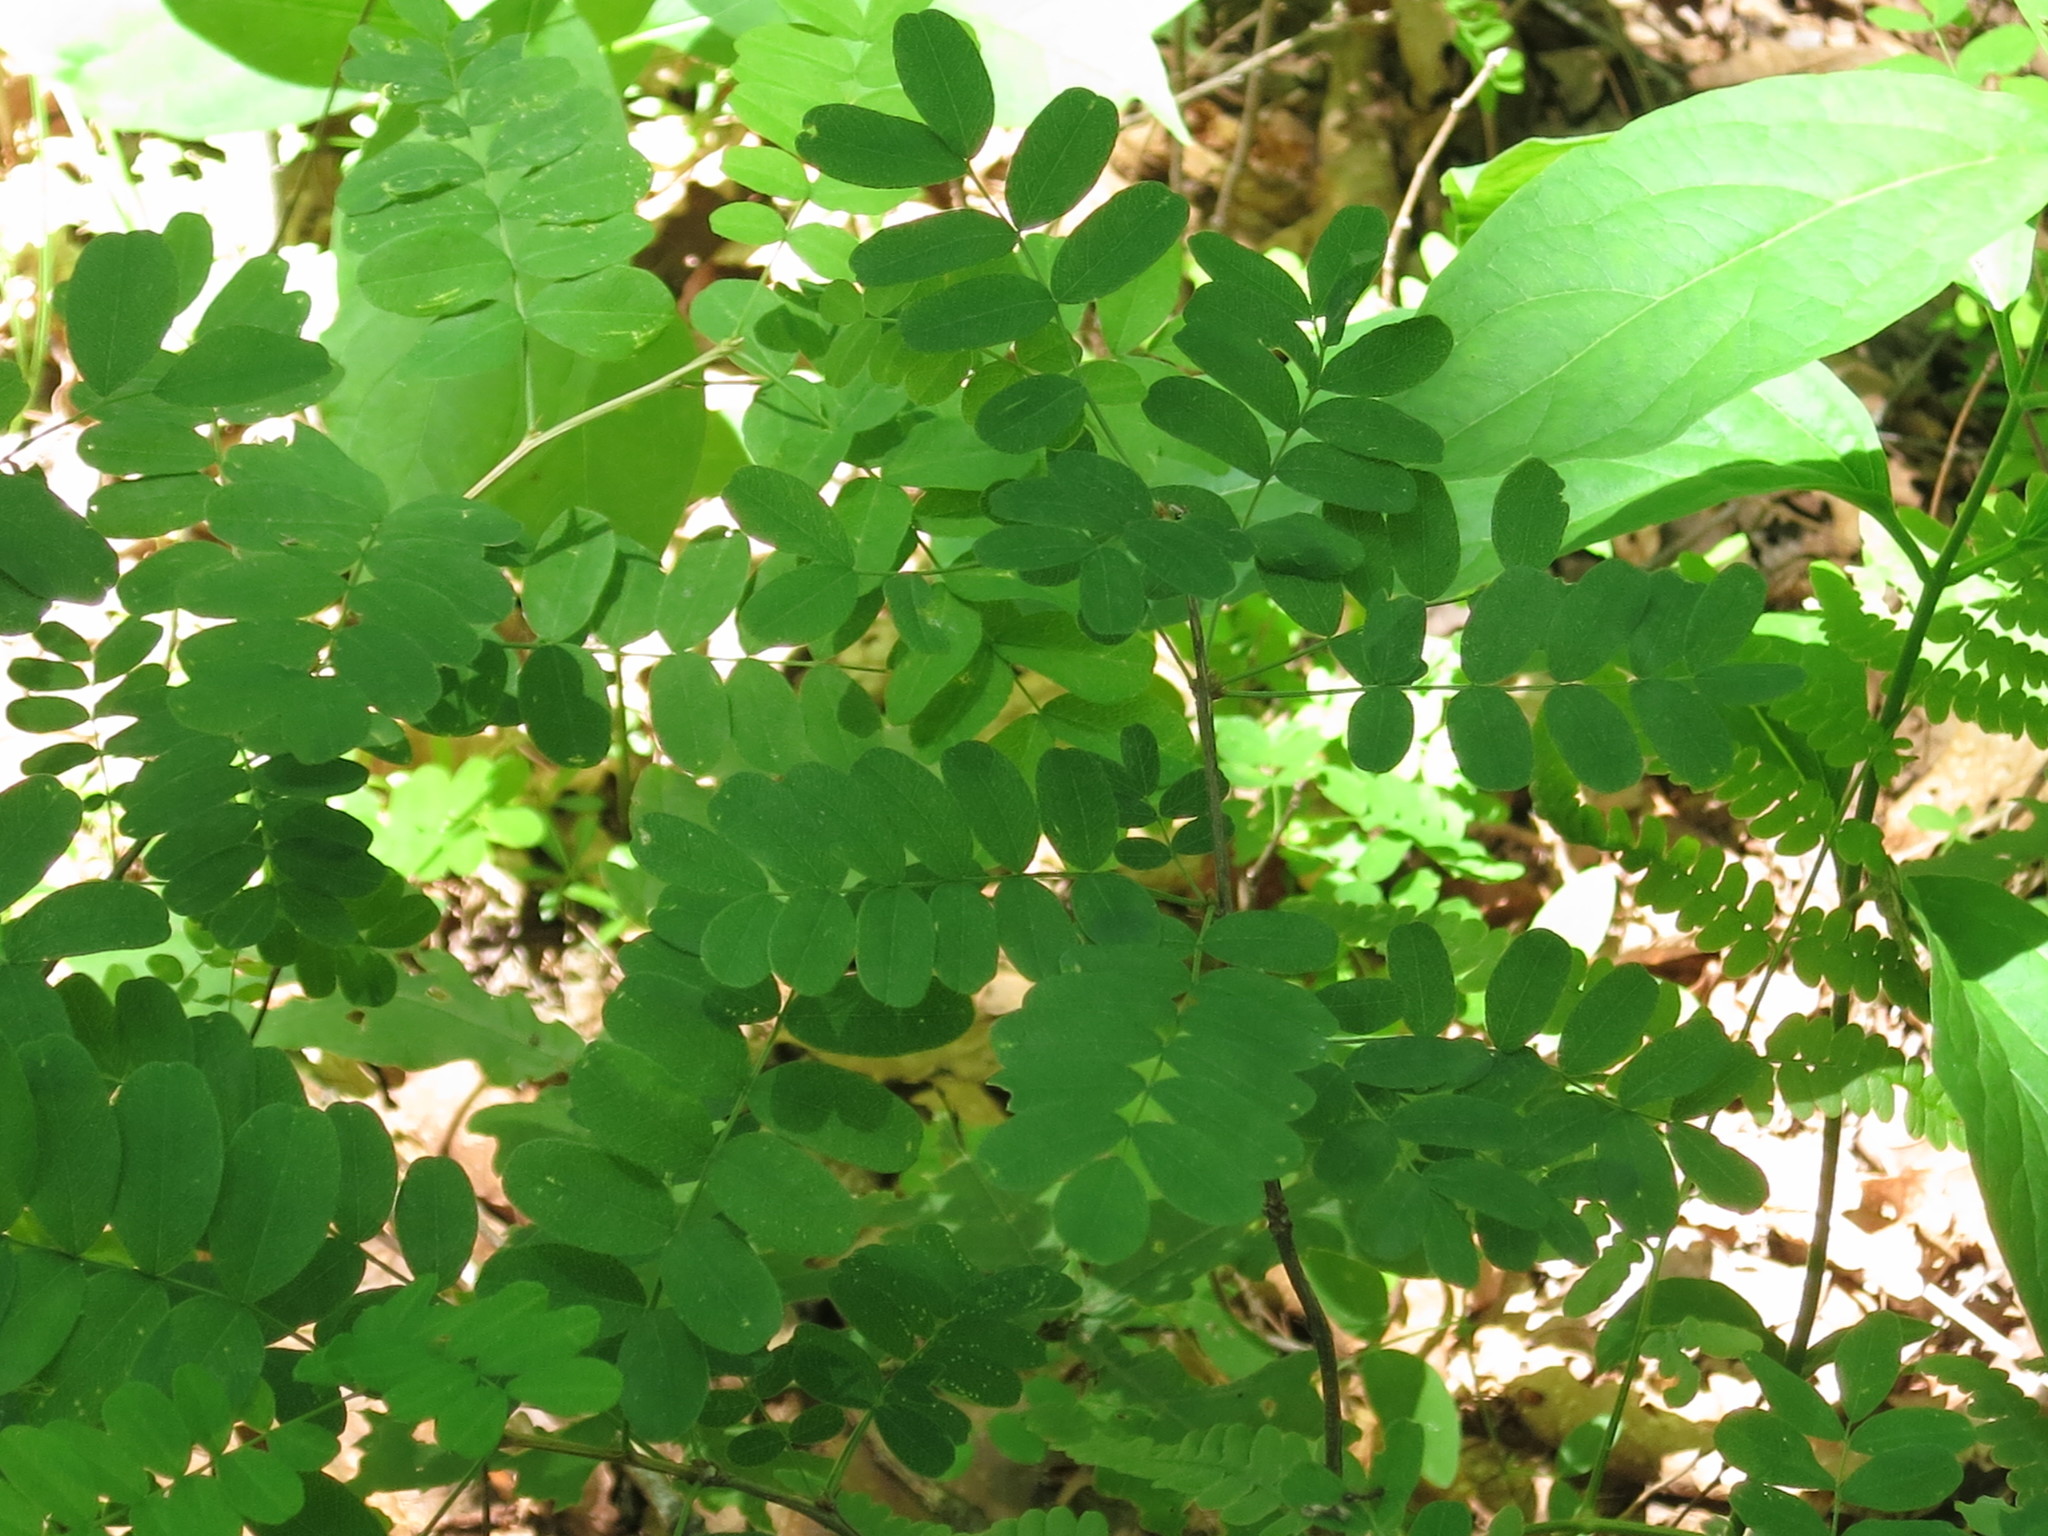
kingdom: Plantae
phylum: Tracheophyta
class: Magnoliopsida
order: Fabales
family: Fabaceae
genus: Caragana
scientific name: Caragana manshurica
